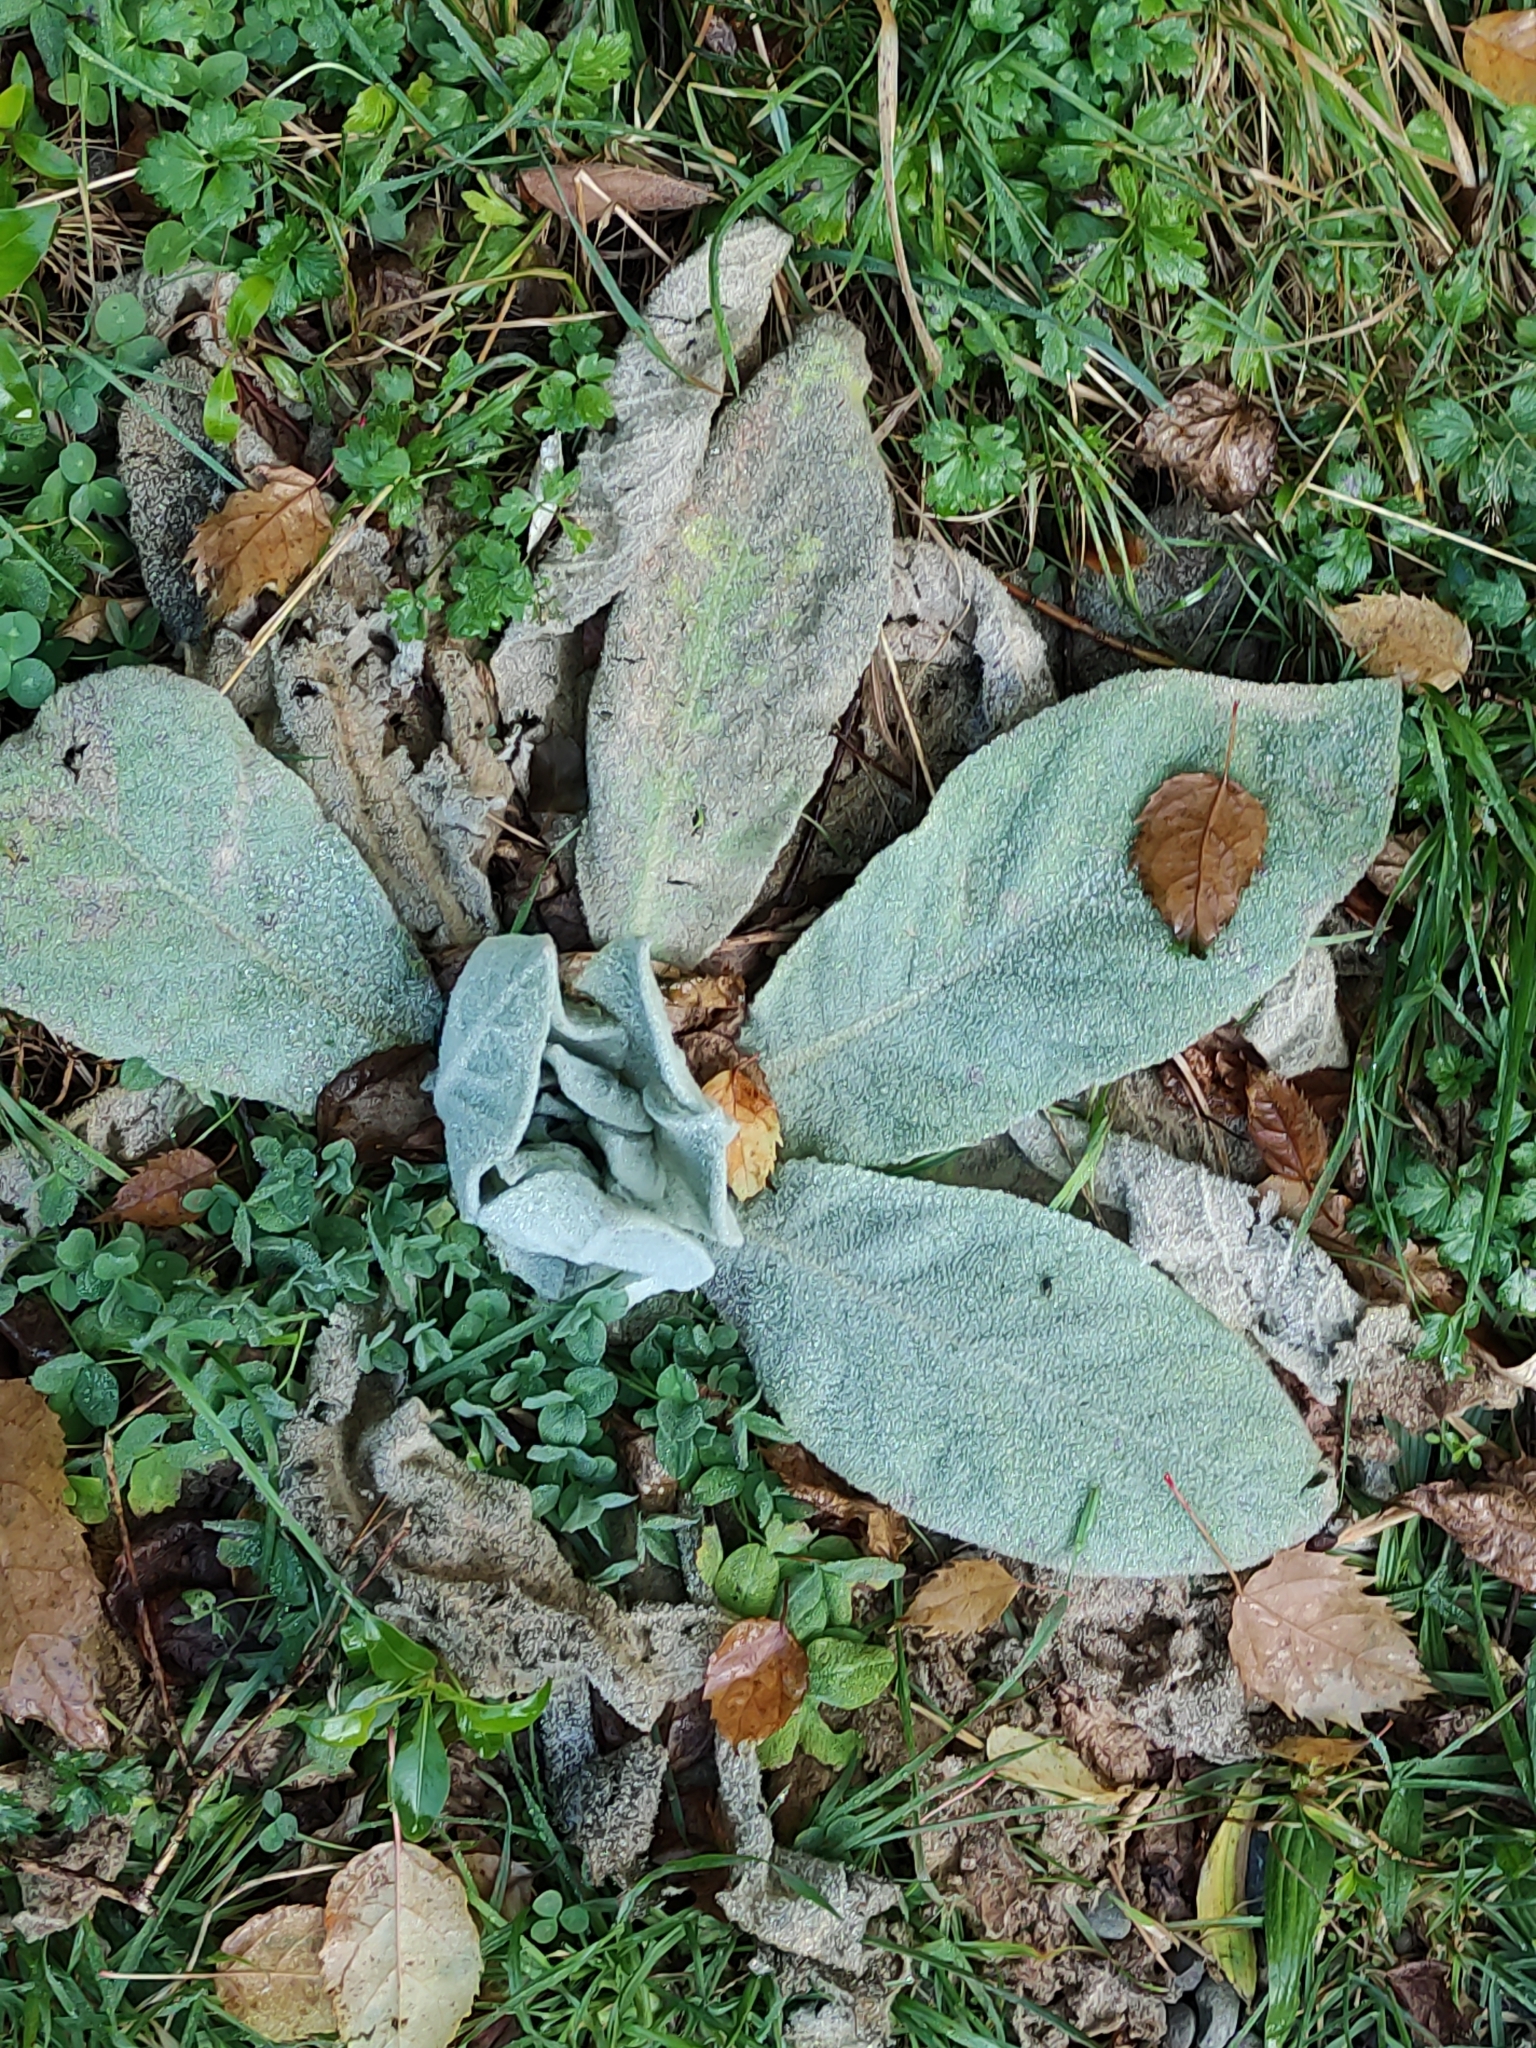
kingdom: Plantae
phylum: Tracheophyta
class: Magnoliopsida
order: Lamiales
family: Scrophulariaceae
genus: Verbascum
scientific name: Verbascum thapsus
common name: Common mullein
